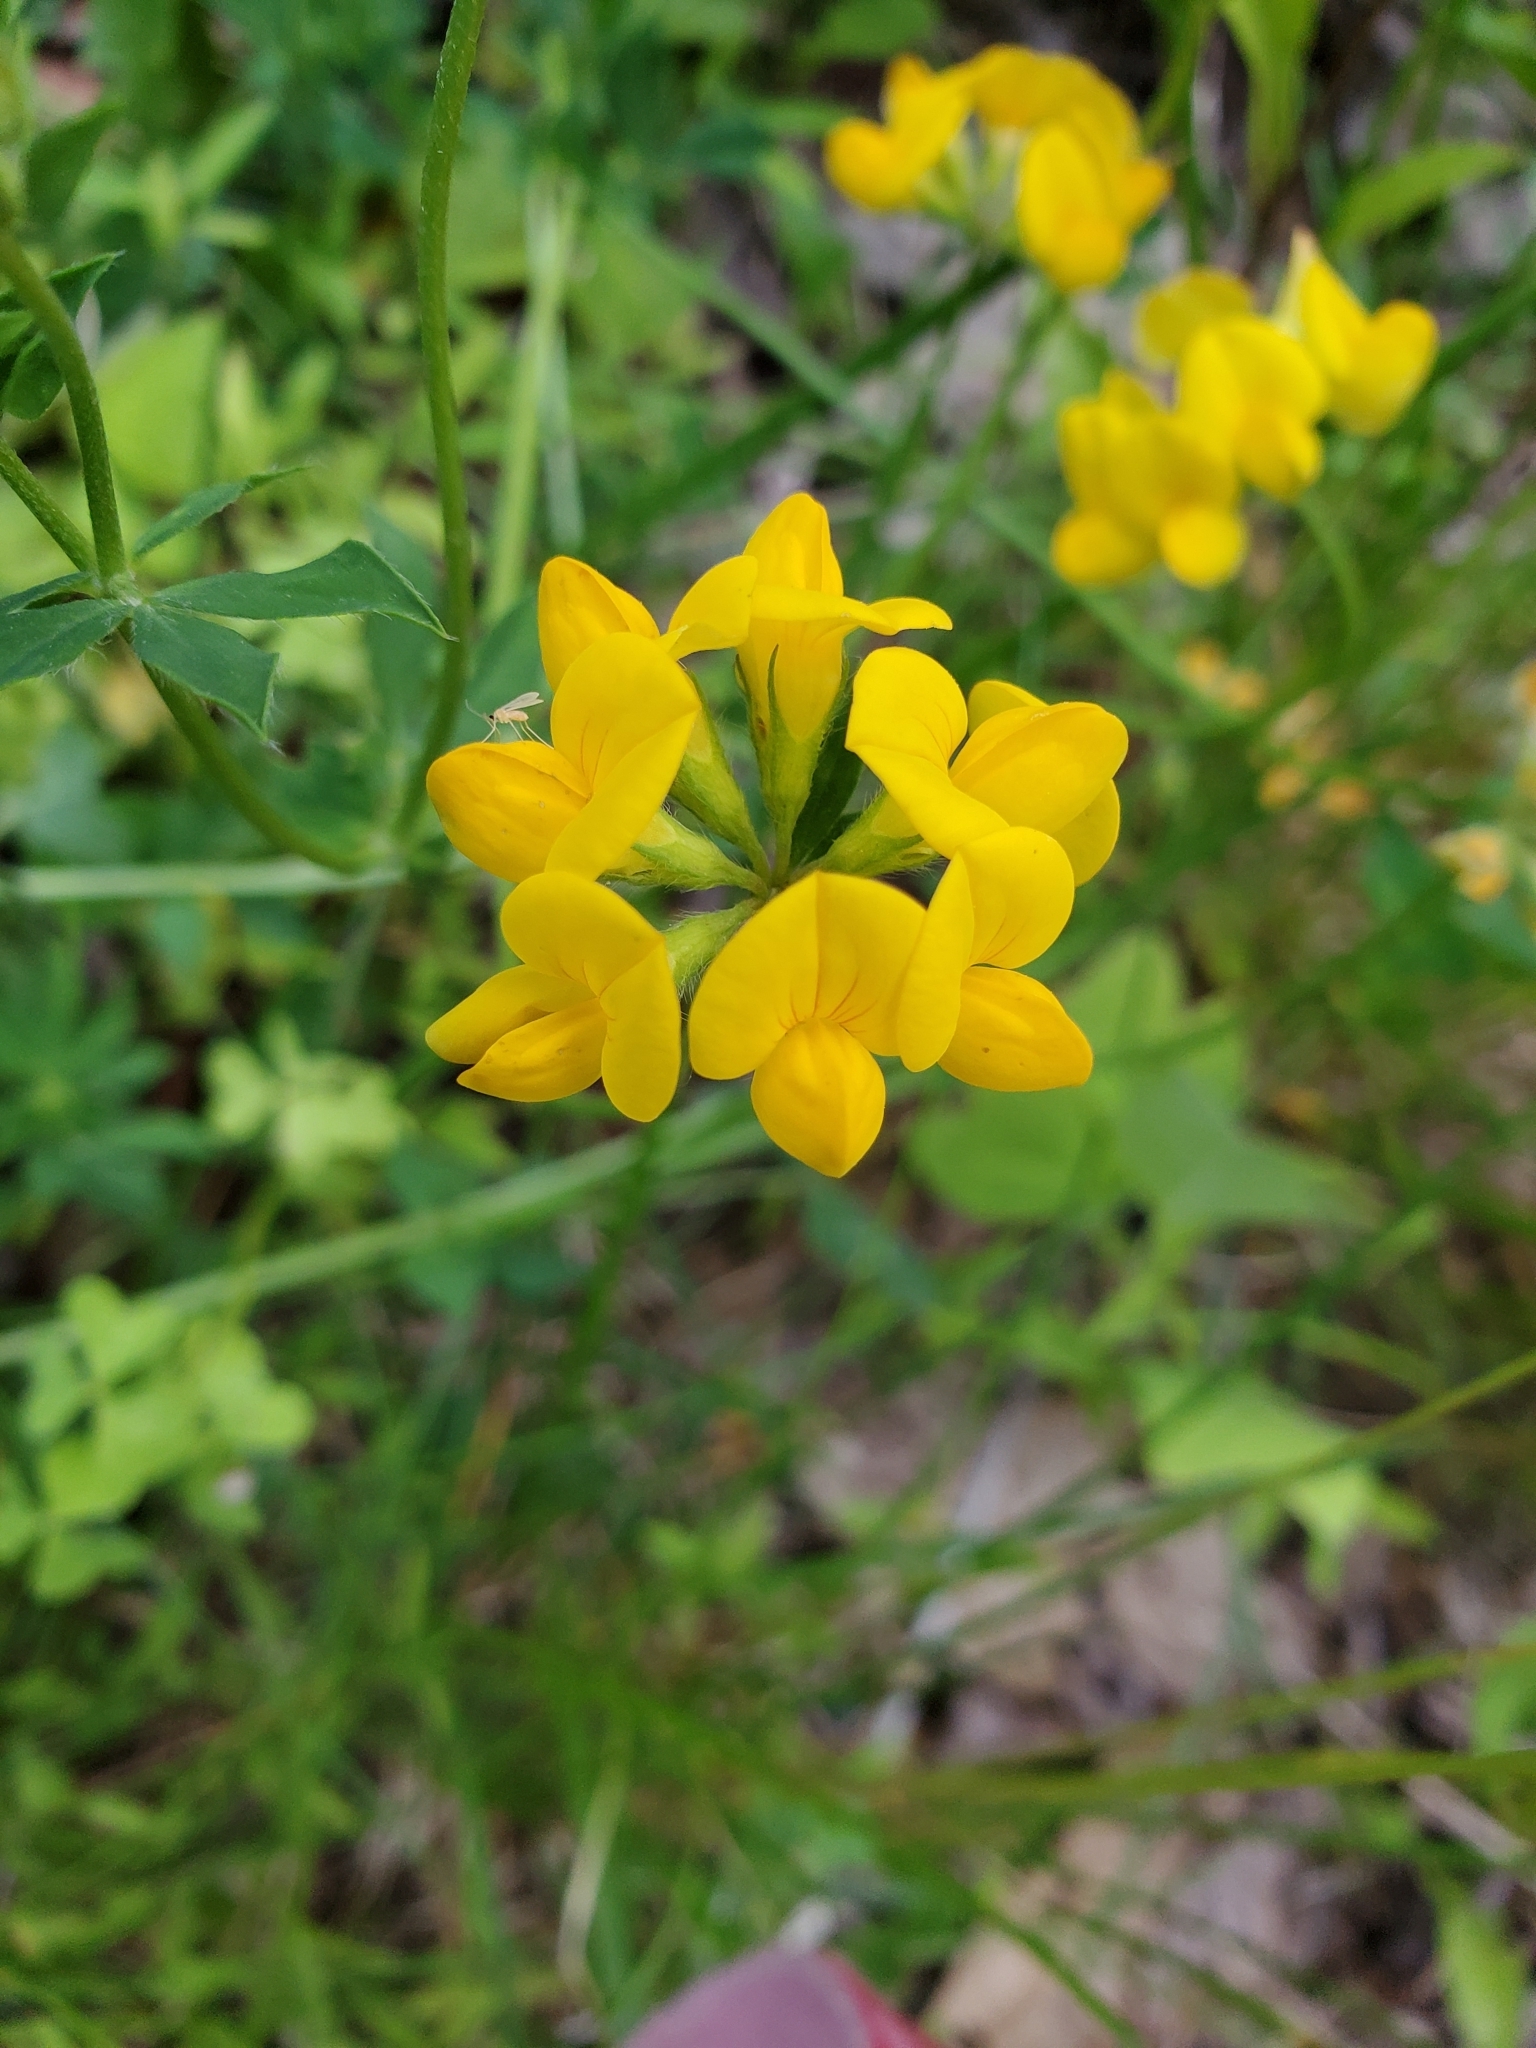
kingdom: Plantae
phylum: Tracheophyta
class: Magnoliopsida
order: Fabales
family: Fabaceae
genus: Lotus
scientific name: Lotus corniculatus
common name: Common bird's-foot-trefoil
